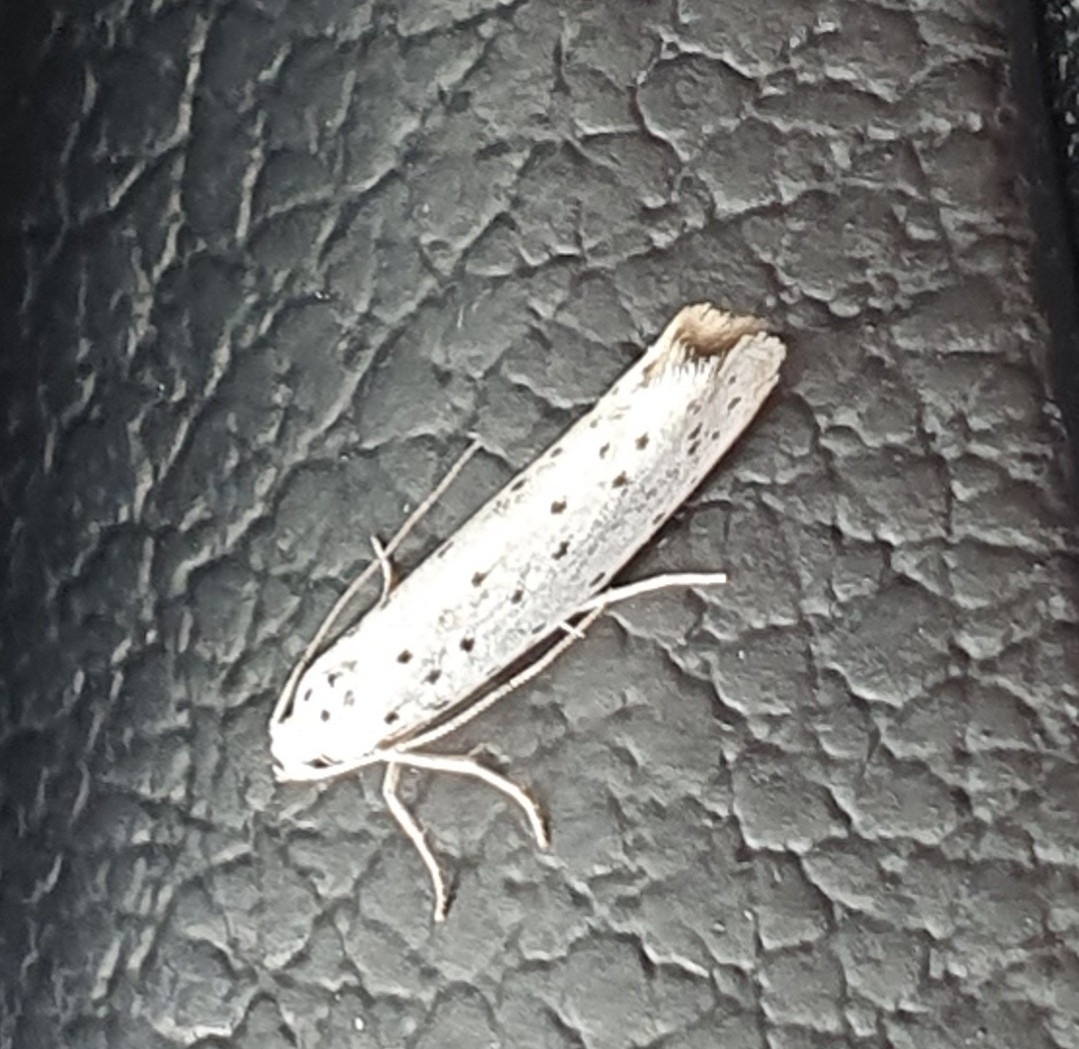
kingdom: Animalia
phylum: Arthropoda
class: Insecta
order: Lepidoptera
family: Yponomeutidae
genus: Yponomeuta
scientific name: Yponomeuta
